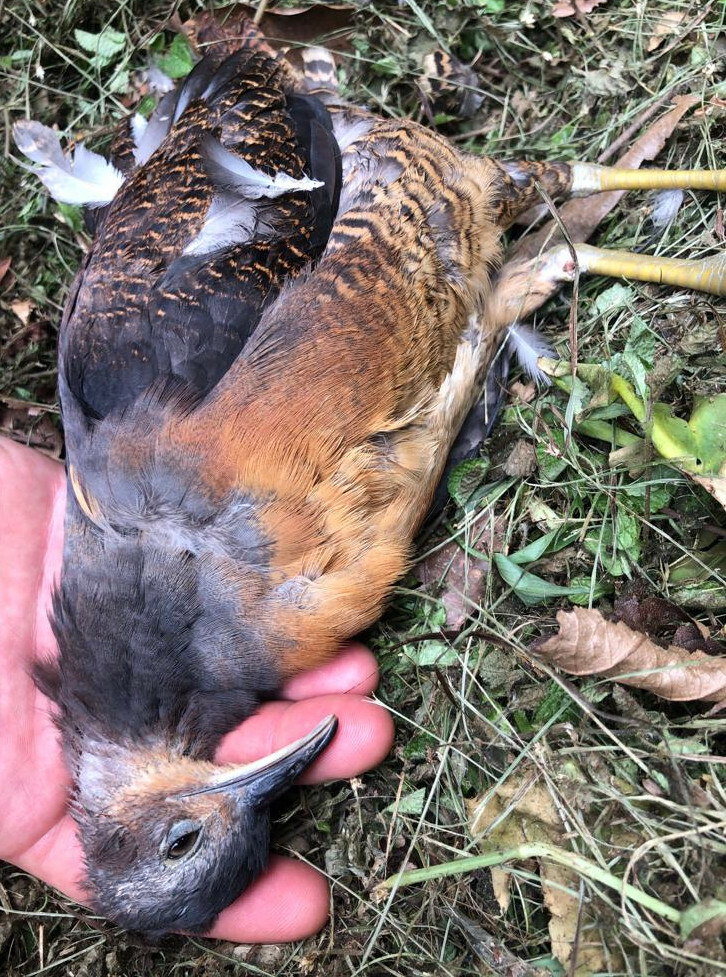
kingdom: Animalia
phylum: Chordata
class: Aves
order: Tinamiformes
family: Tinamidae
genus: Crypturellus
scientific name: Crypturellus noctivagus
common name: Yellow-legged tinamou
